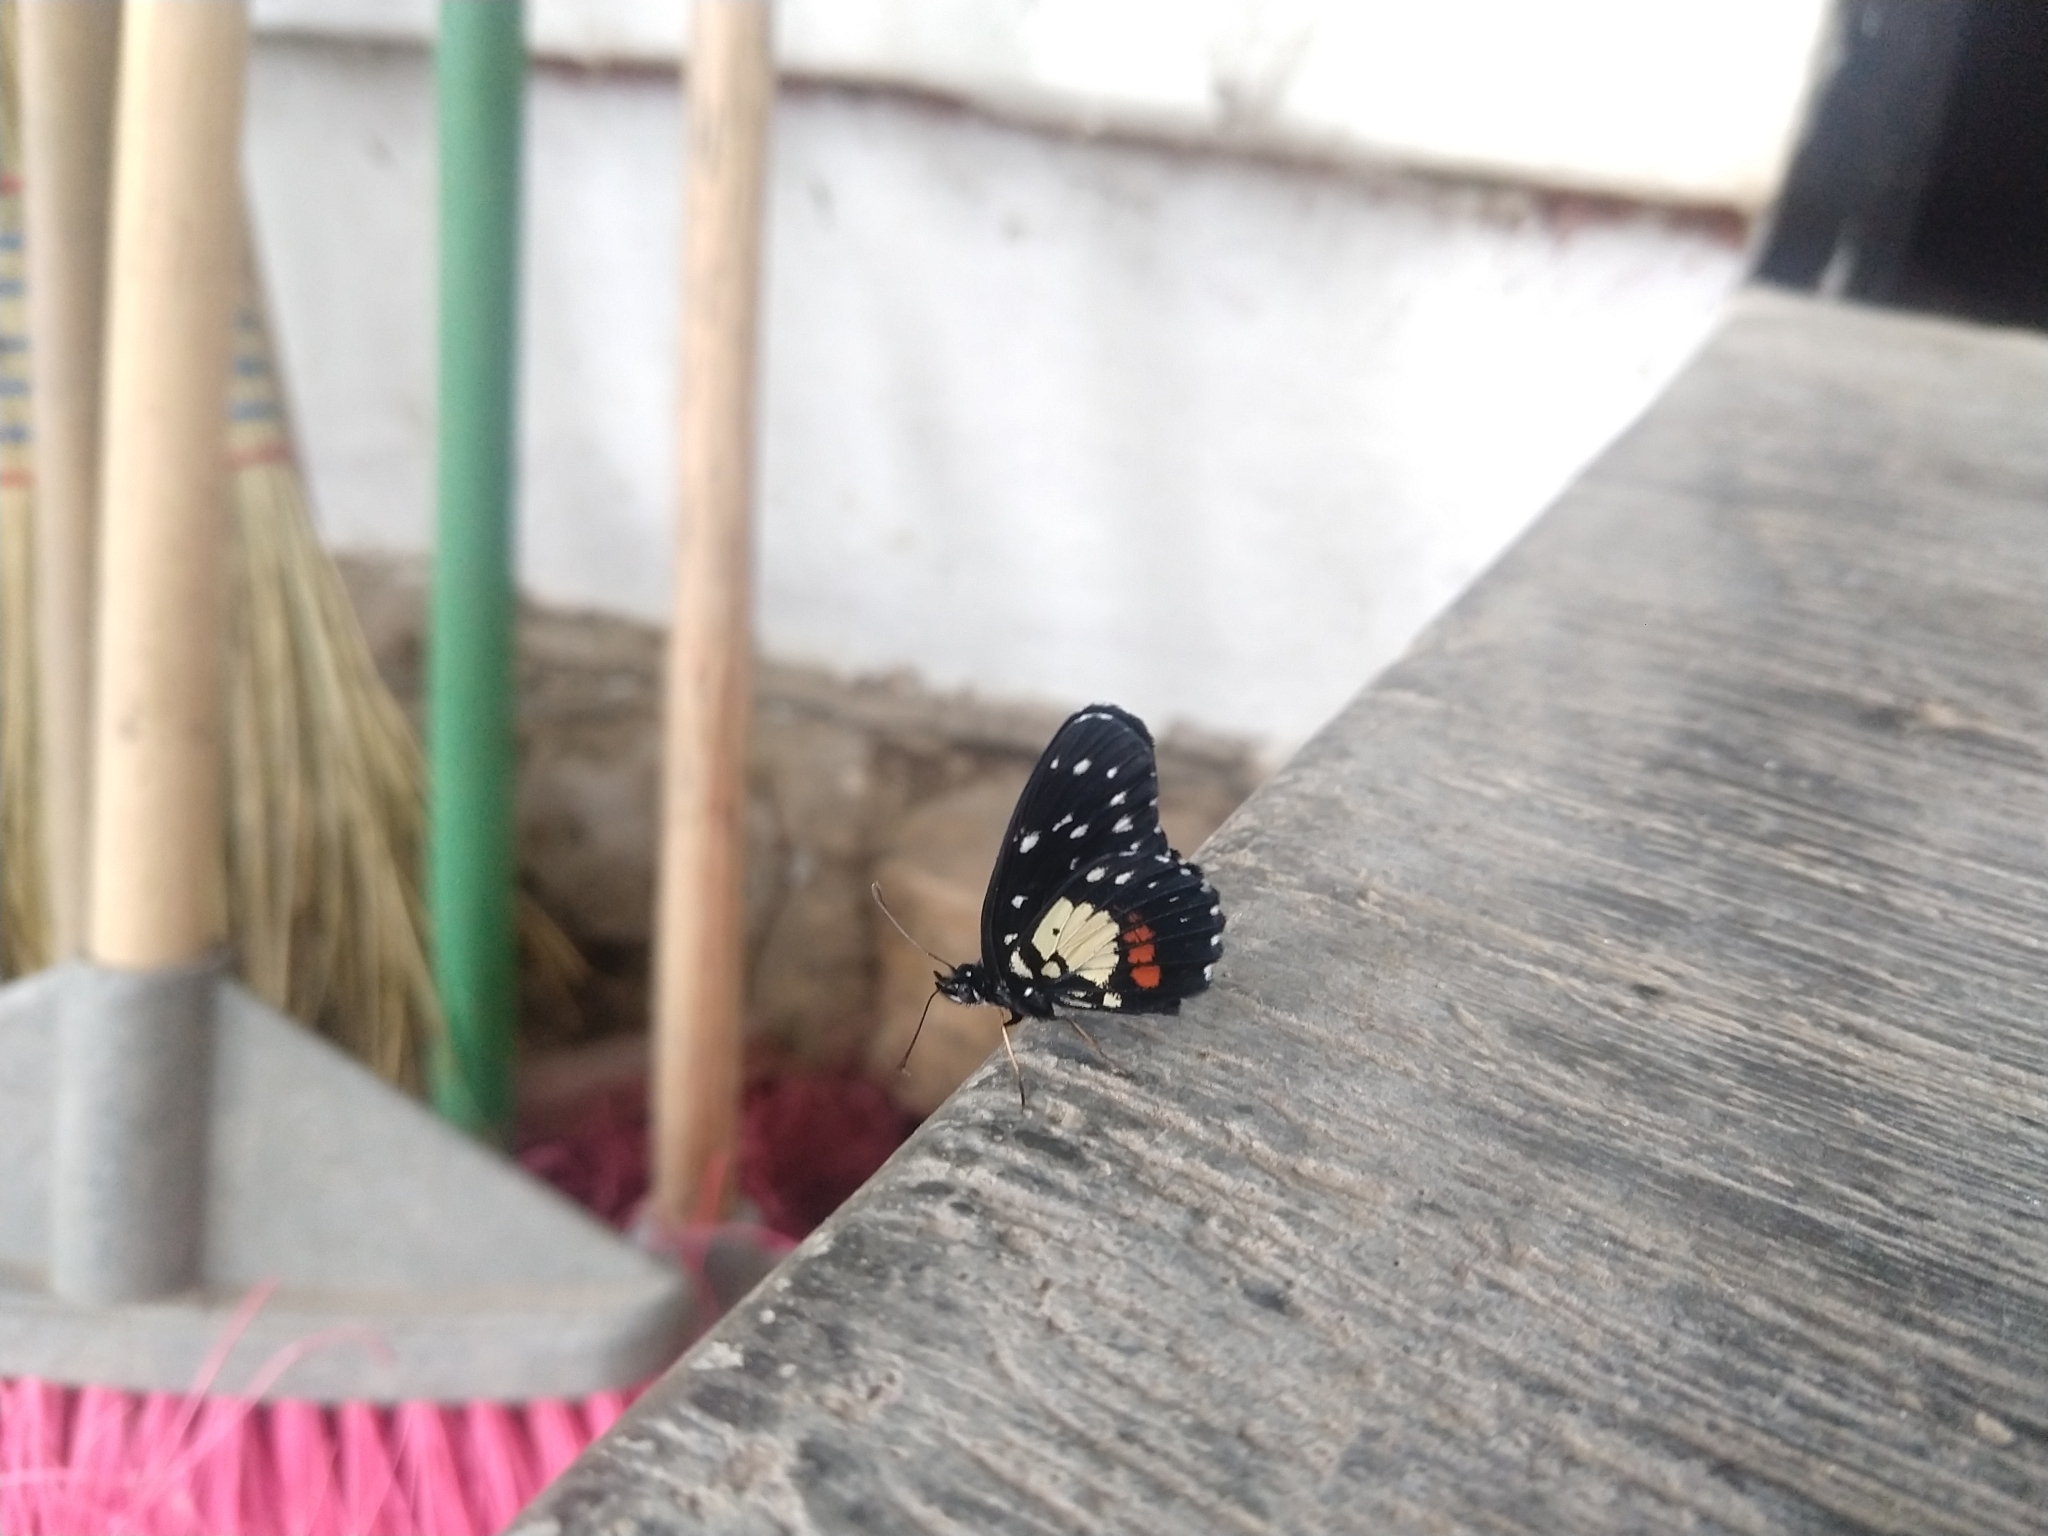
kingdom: Animalia
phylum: Arthropoda
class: Insecta
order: Lepidoptera
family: Nymphalidae
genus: Chlosyne
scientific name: Chlosyne rosita
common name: Rosita patch
